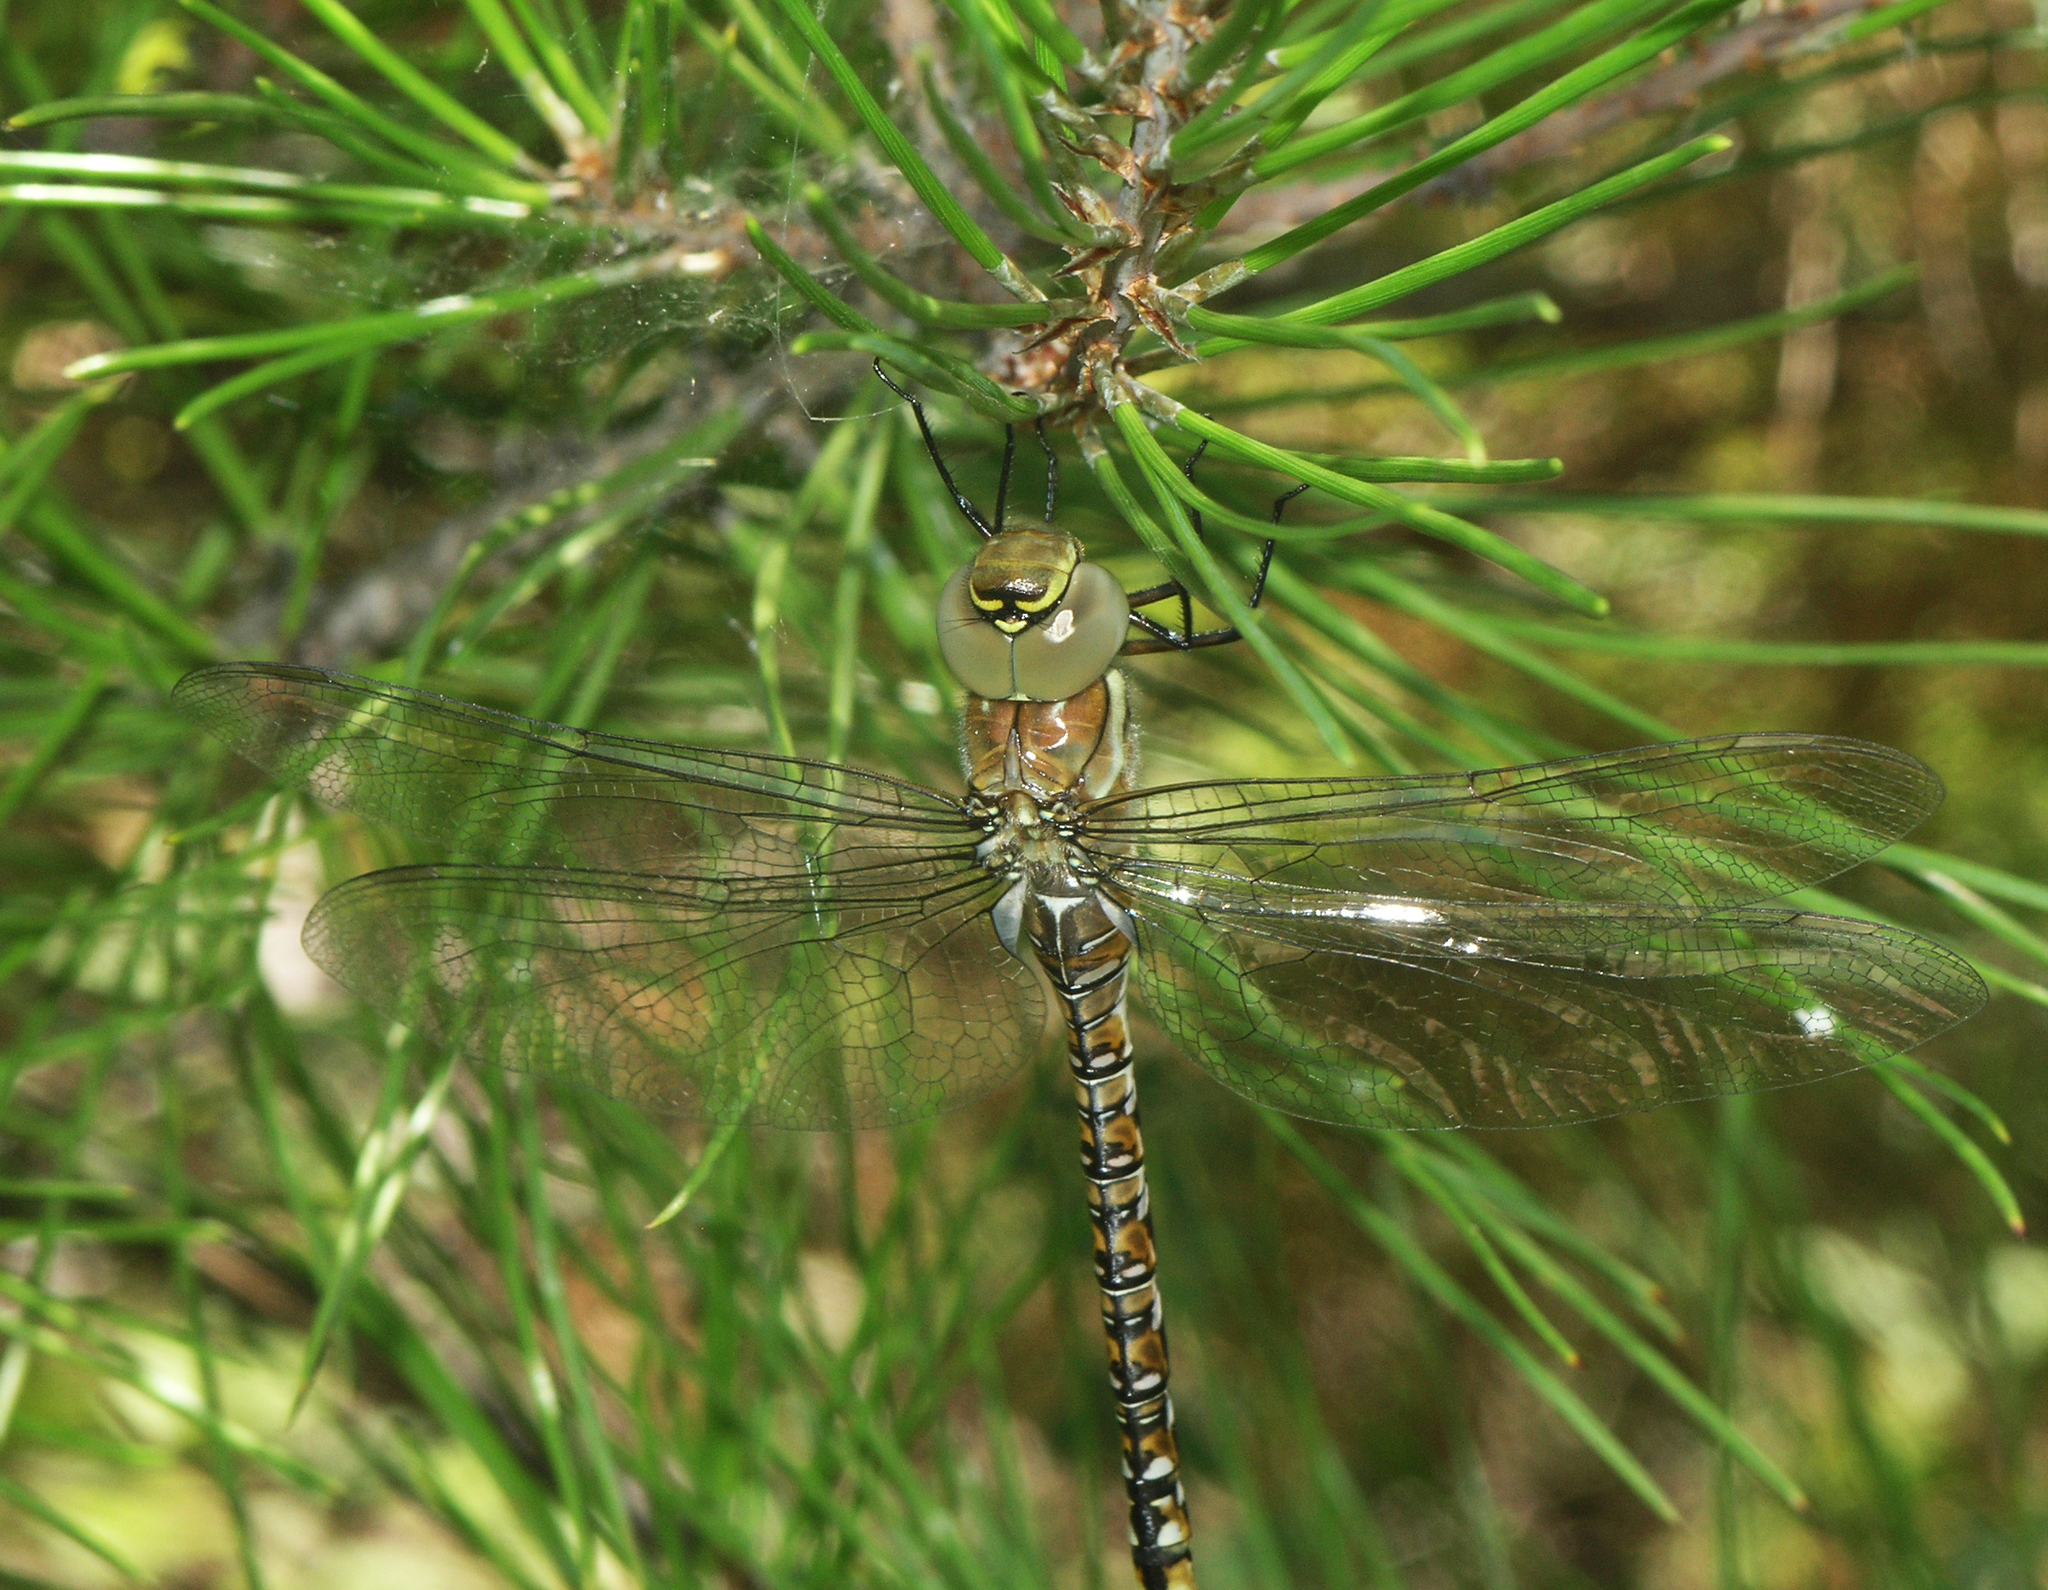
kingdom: Animalia
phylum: Arthropoda
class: Insecta
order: Odonata
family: Aeshnidae
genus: Aeshna
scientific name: Aeshna mixta
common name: Migrant hawker
